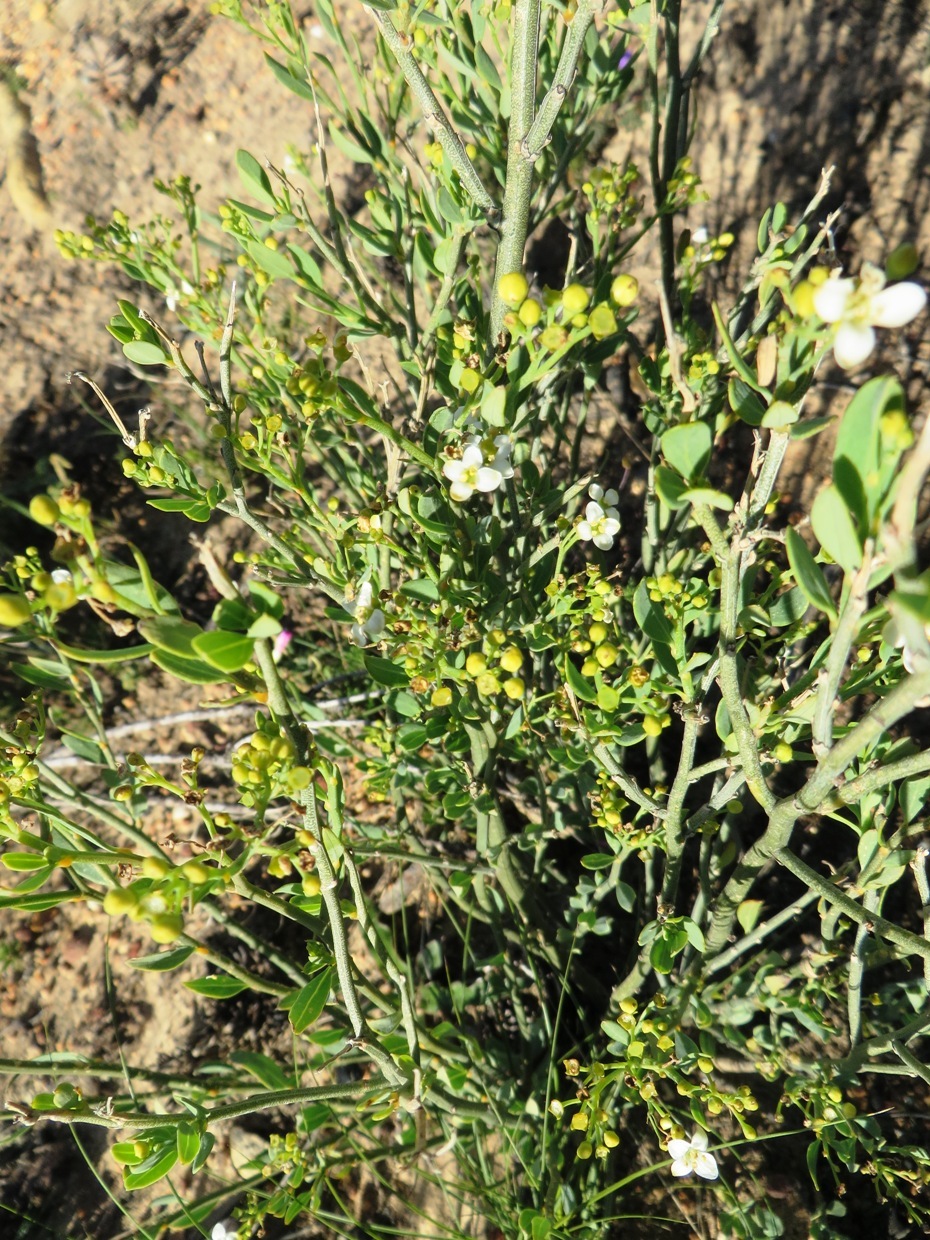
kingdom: Plantae
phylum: Tracheophyta
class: Magnoliopsida
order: Solanales
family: Montiniaceae
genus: Montinia
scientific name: Montinia caryophyllacea
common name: Wild clove-bush
